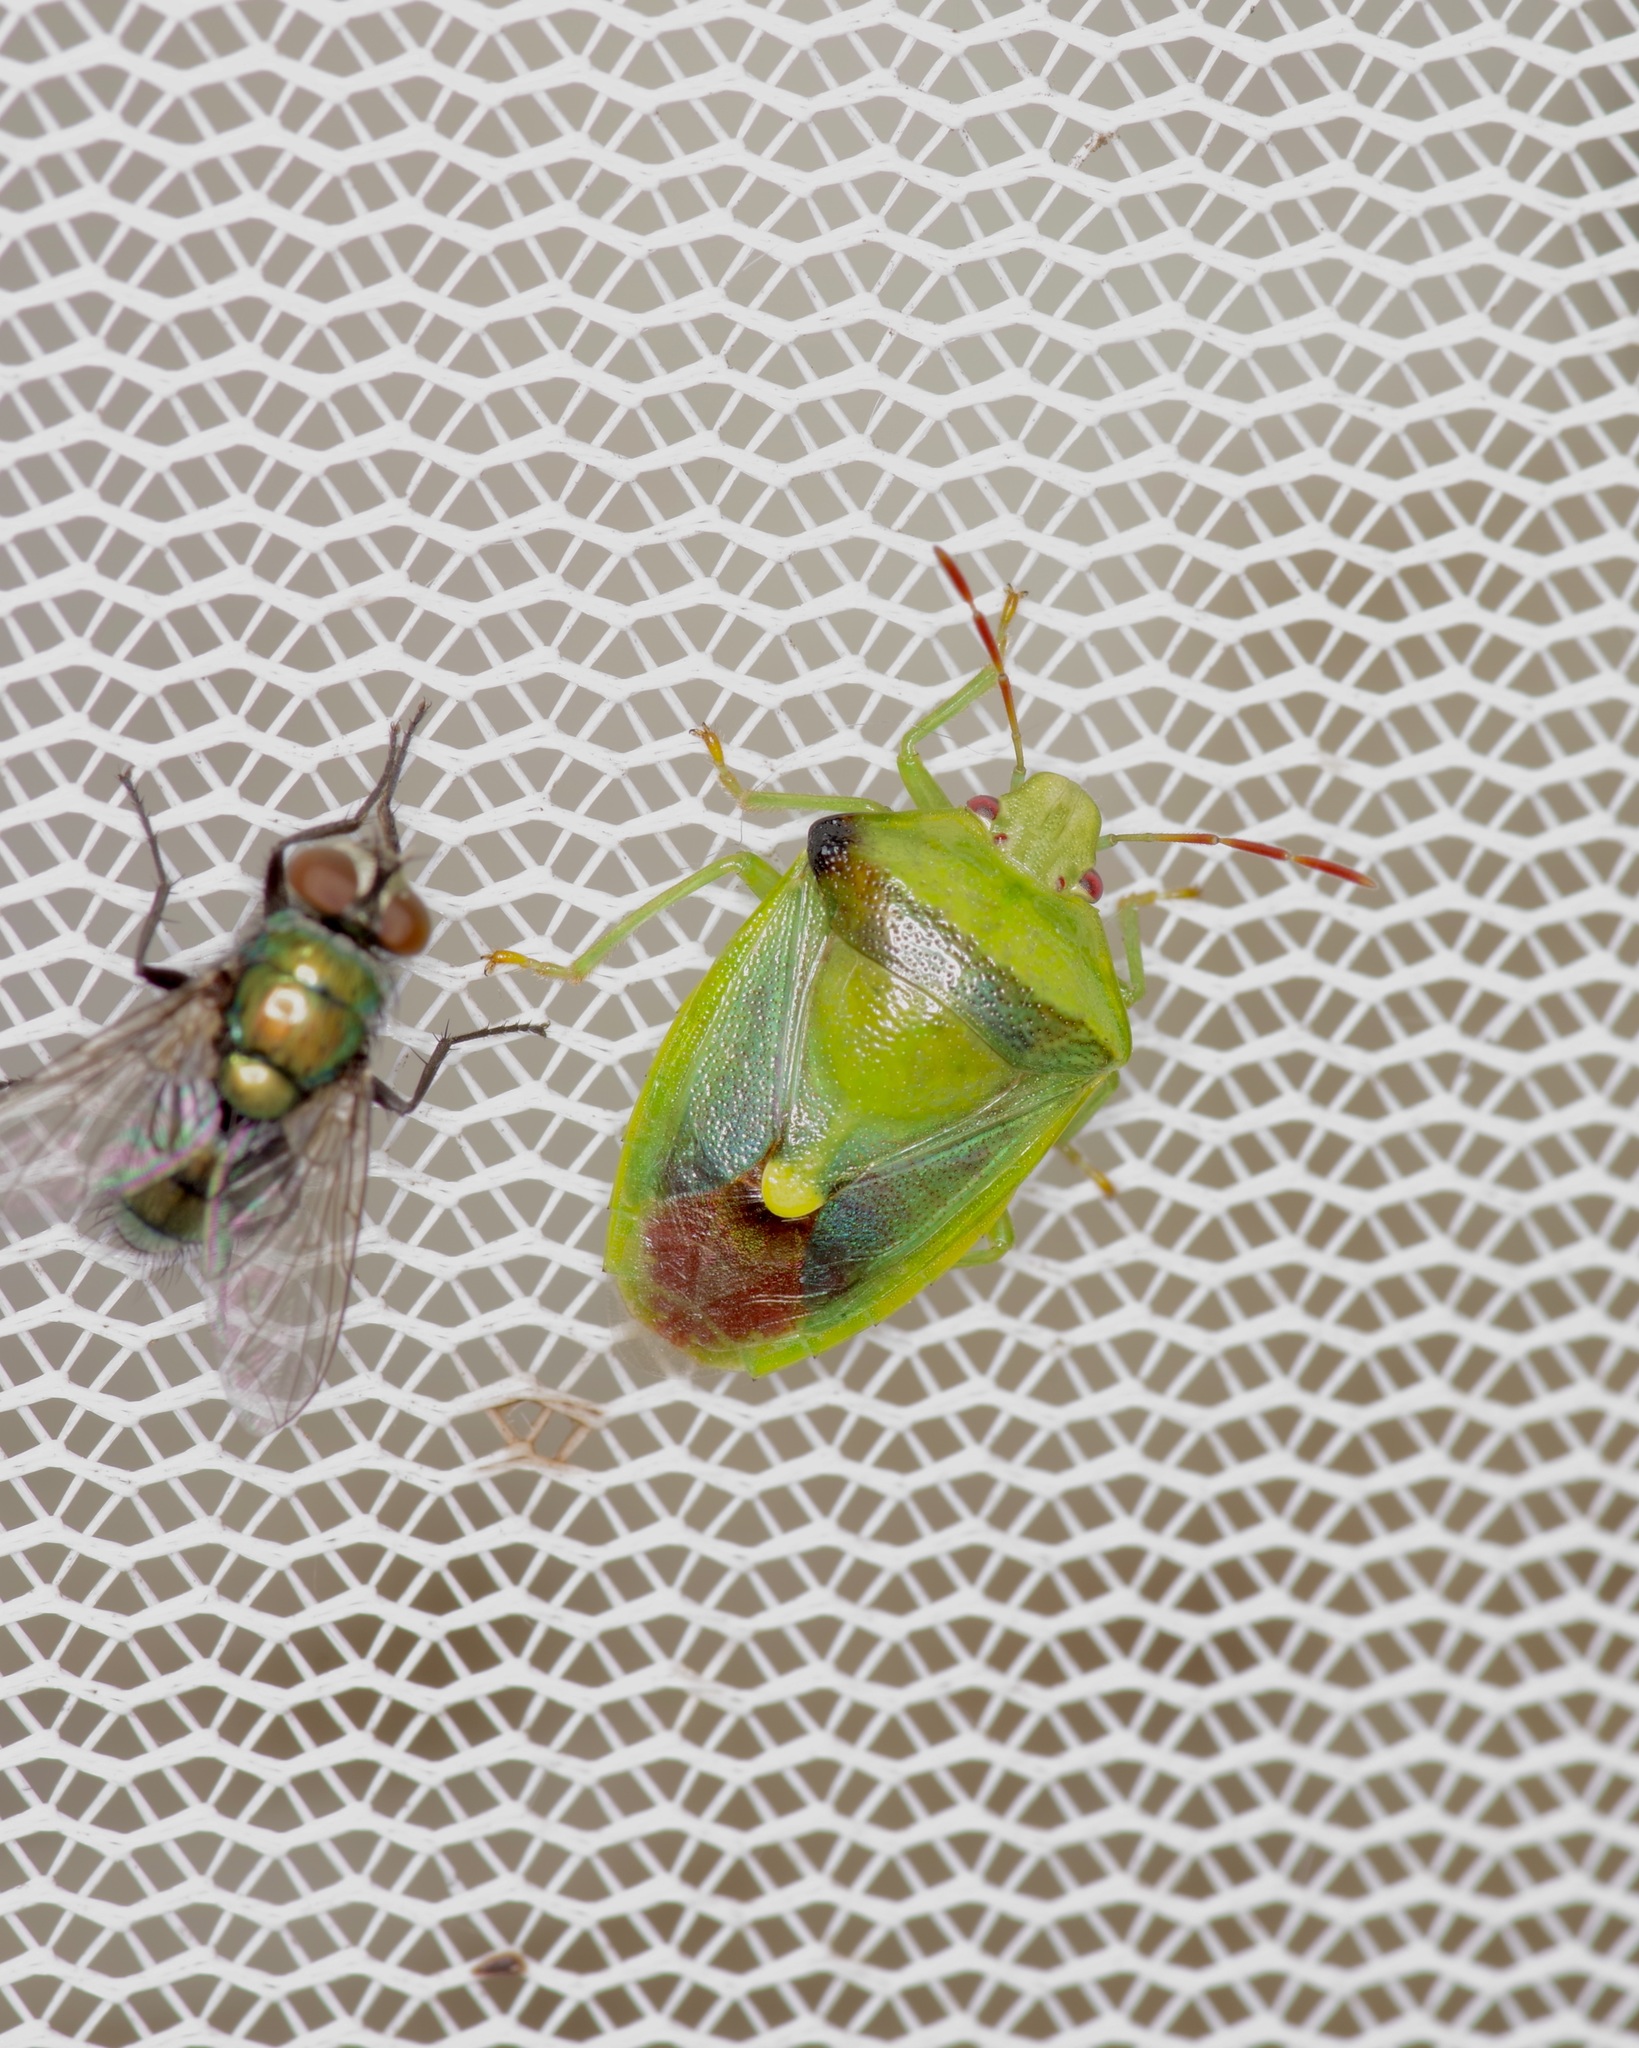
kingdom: Animalia
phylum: Arthropoda
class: Insecta
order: Hemiptera
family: Pentatomidae
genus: Banasa
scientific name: Banasa dimidiata
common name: Green burgundy stink bug
